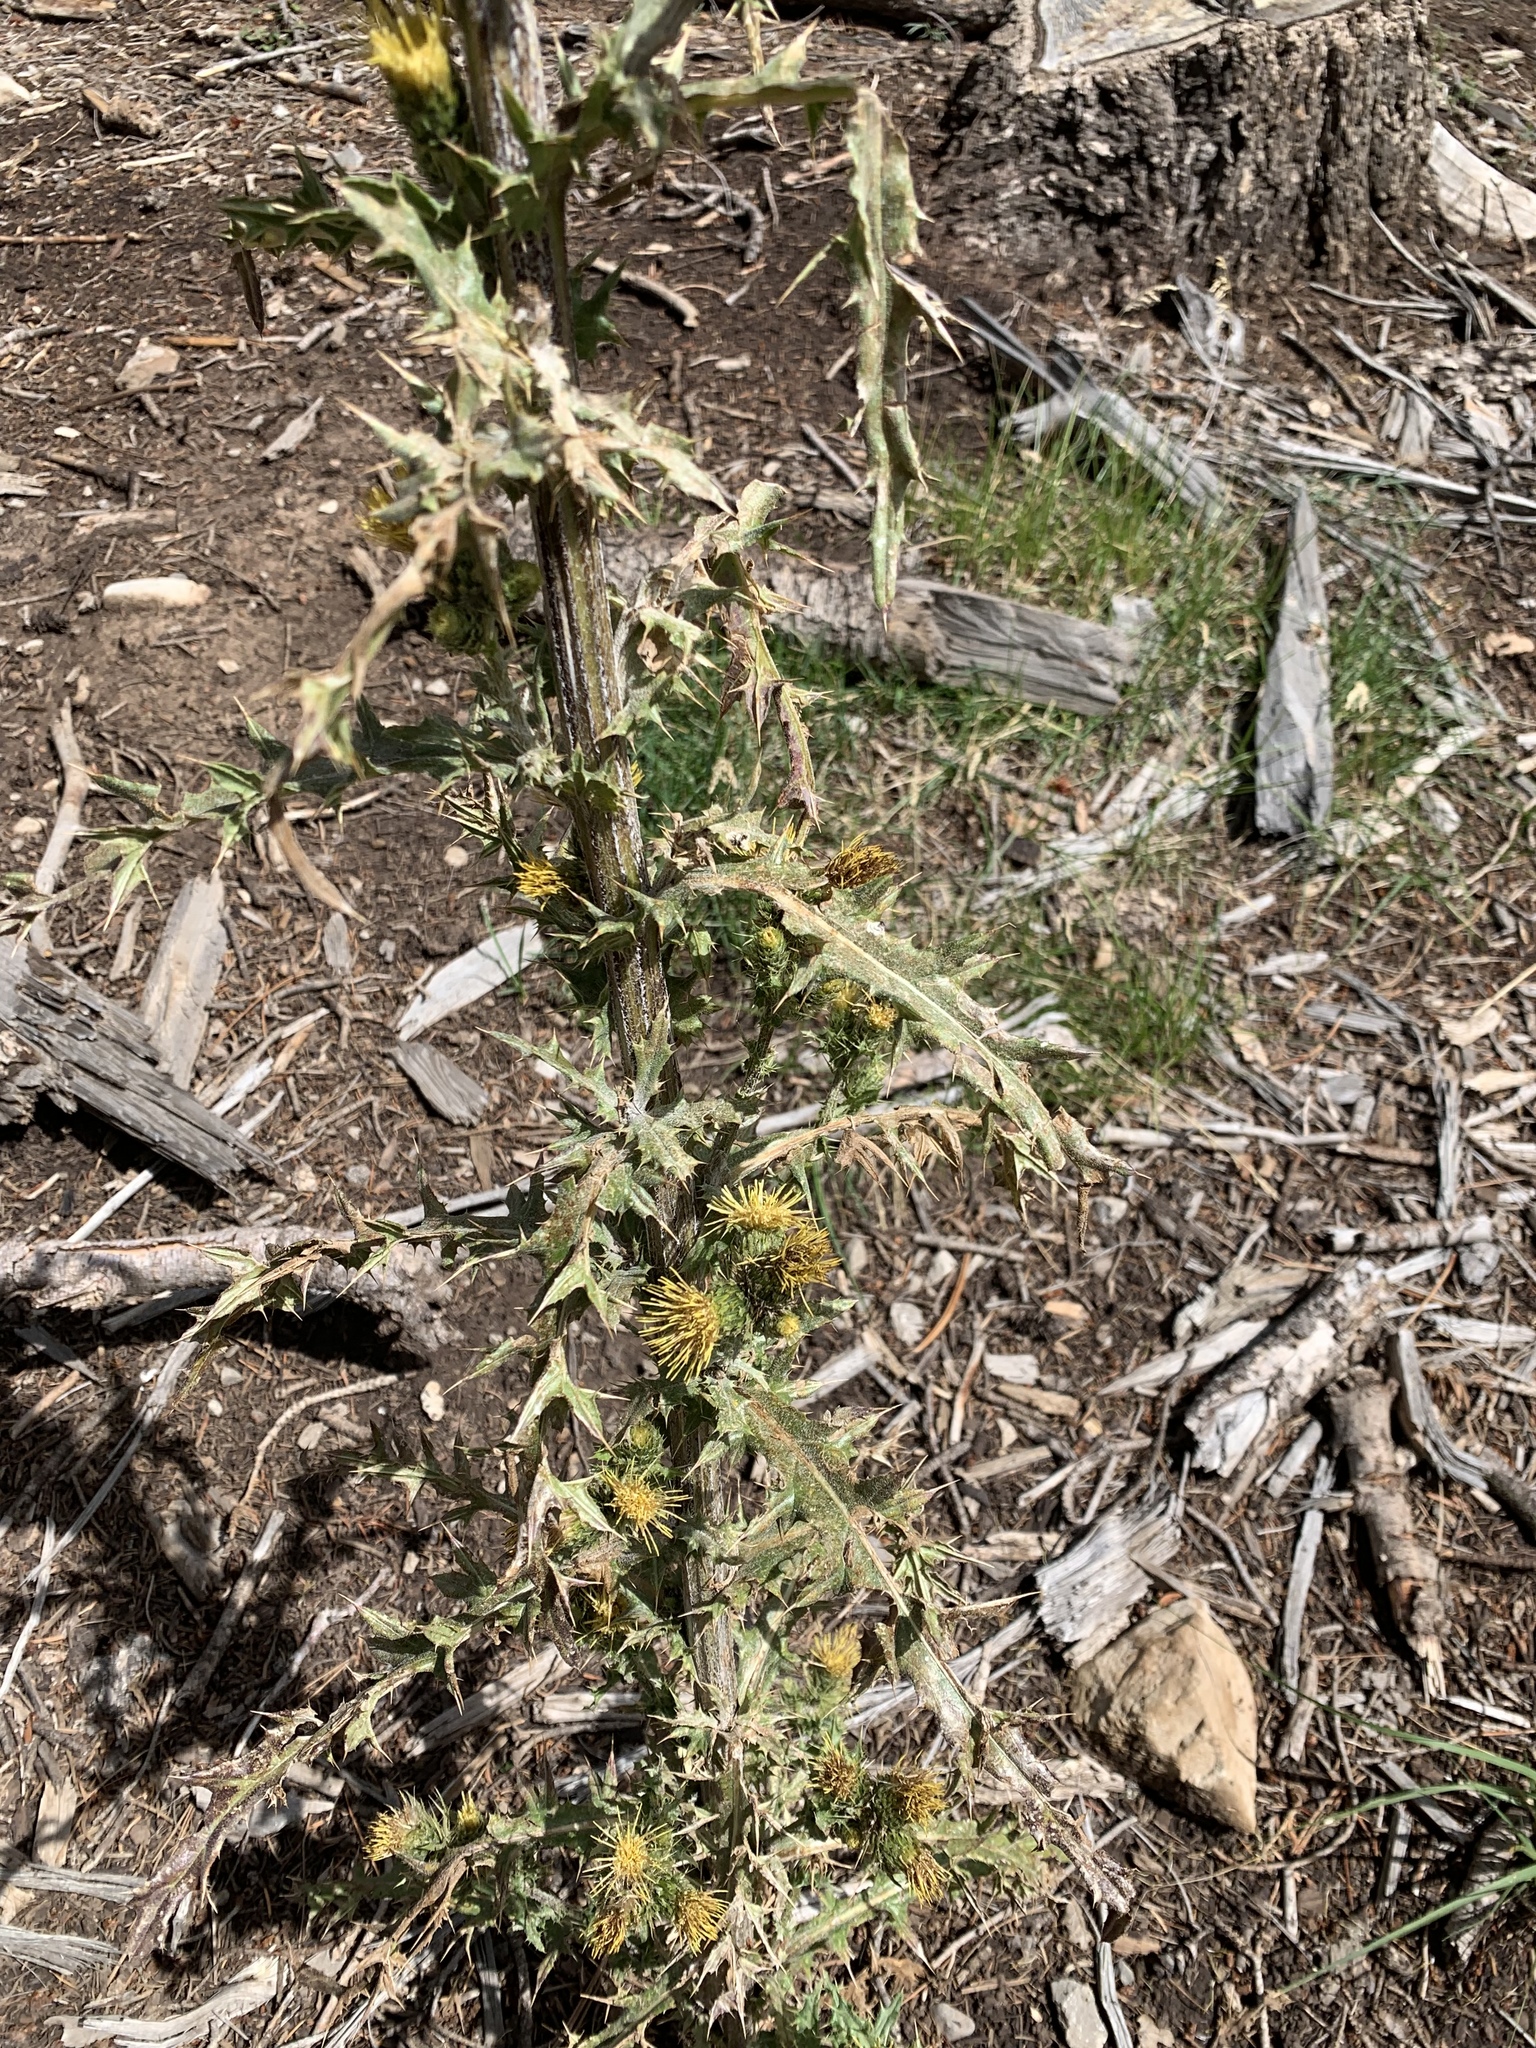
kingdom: Plantae
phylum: Tracheophyta
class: Magnoliopsida
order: Asterales
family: Asteraceae
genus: Cirsium
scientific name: Cirsium parryi
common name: Parry's thistle
